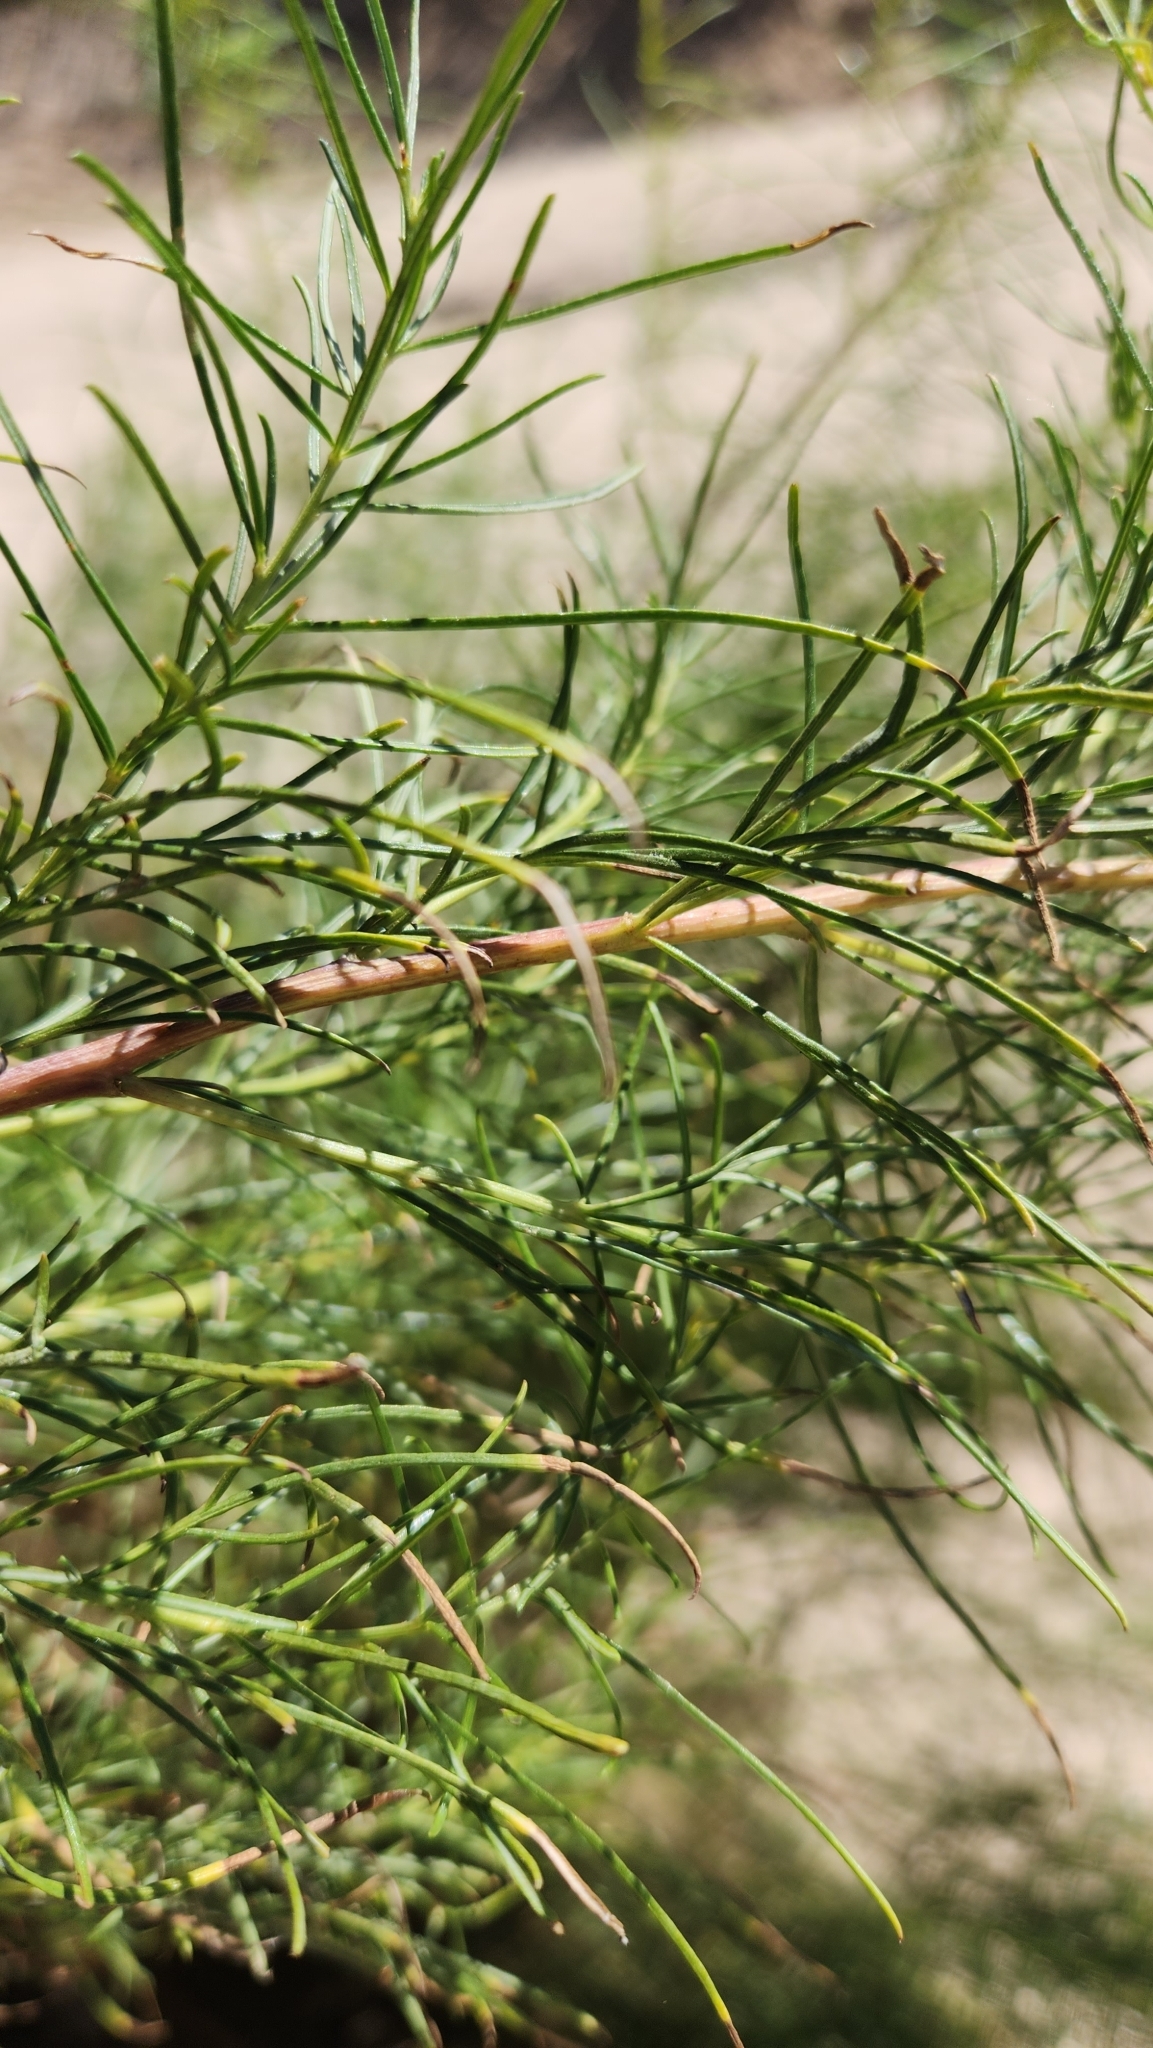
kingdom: Plantae
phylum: Tracheophyta
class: Magnoliopsida
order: Asterales
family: Asteraceae
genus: Ambrosia
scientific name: Ambrosia monogyra
